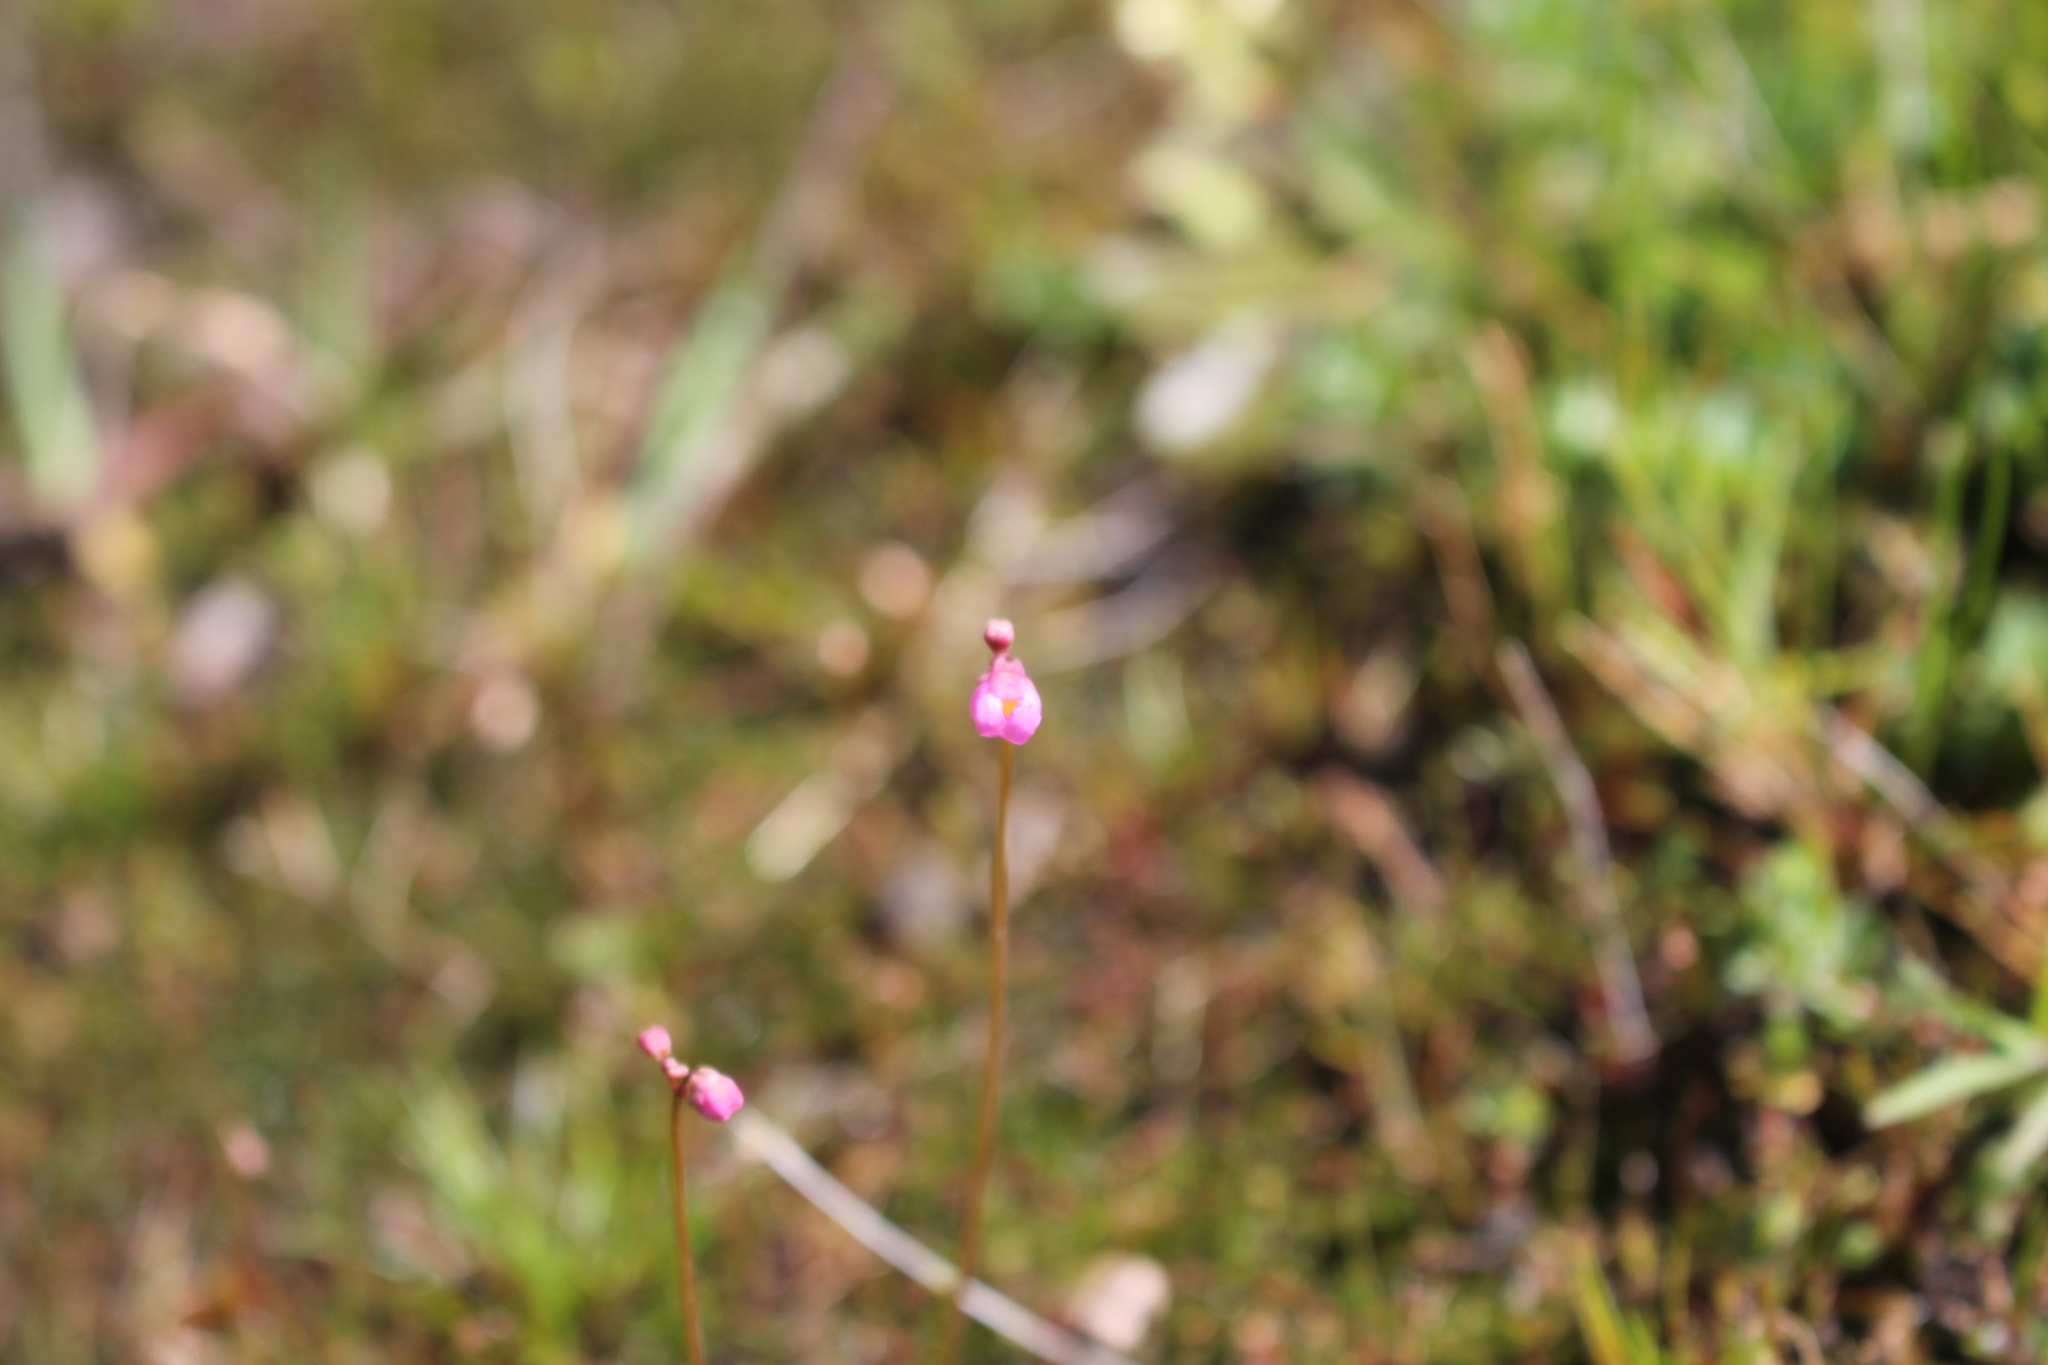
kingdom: Plantae
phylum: Tracheophyta
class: Magnoliopsida
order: Lamiales
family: Lentibulariaceae
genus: Utricularia
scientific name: Utricularia tenella
